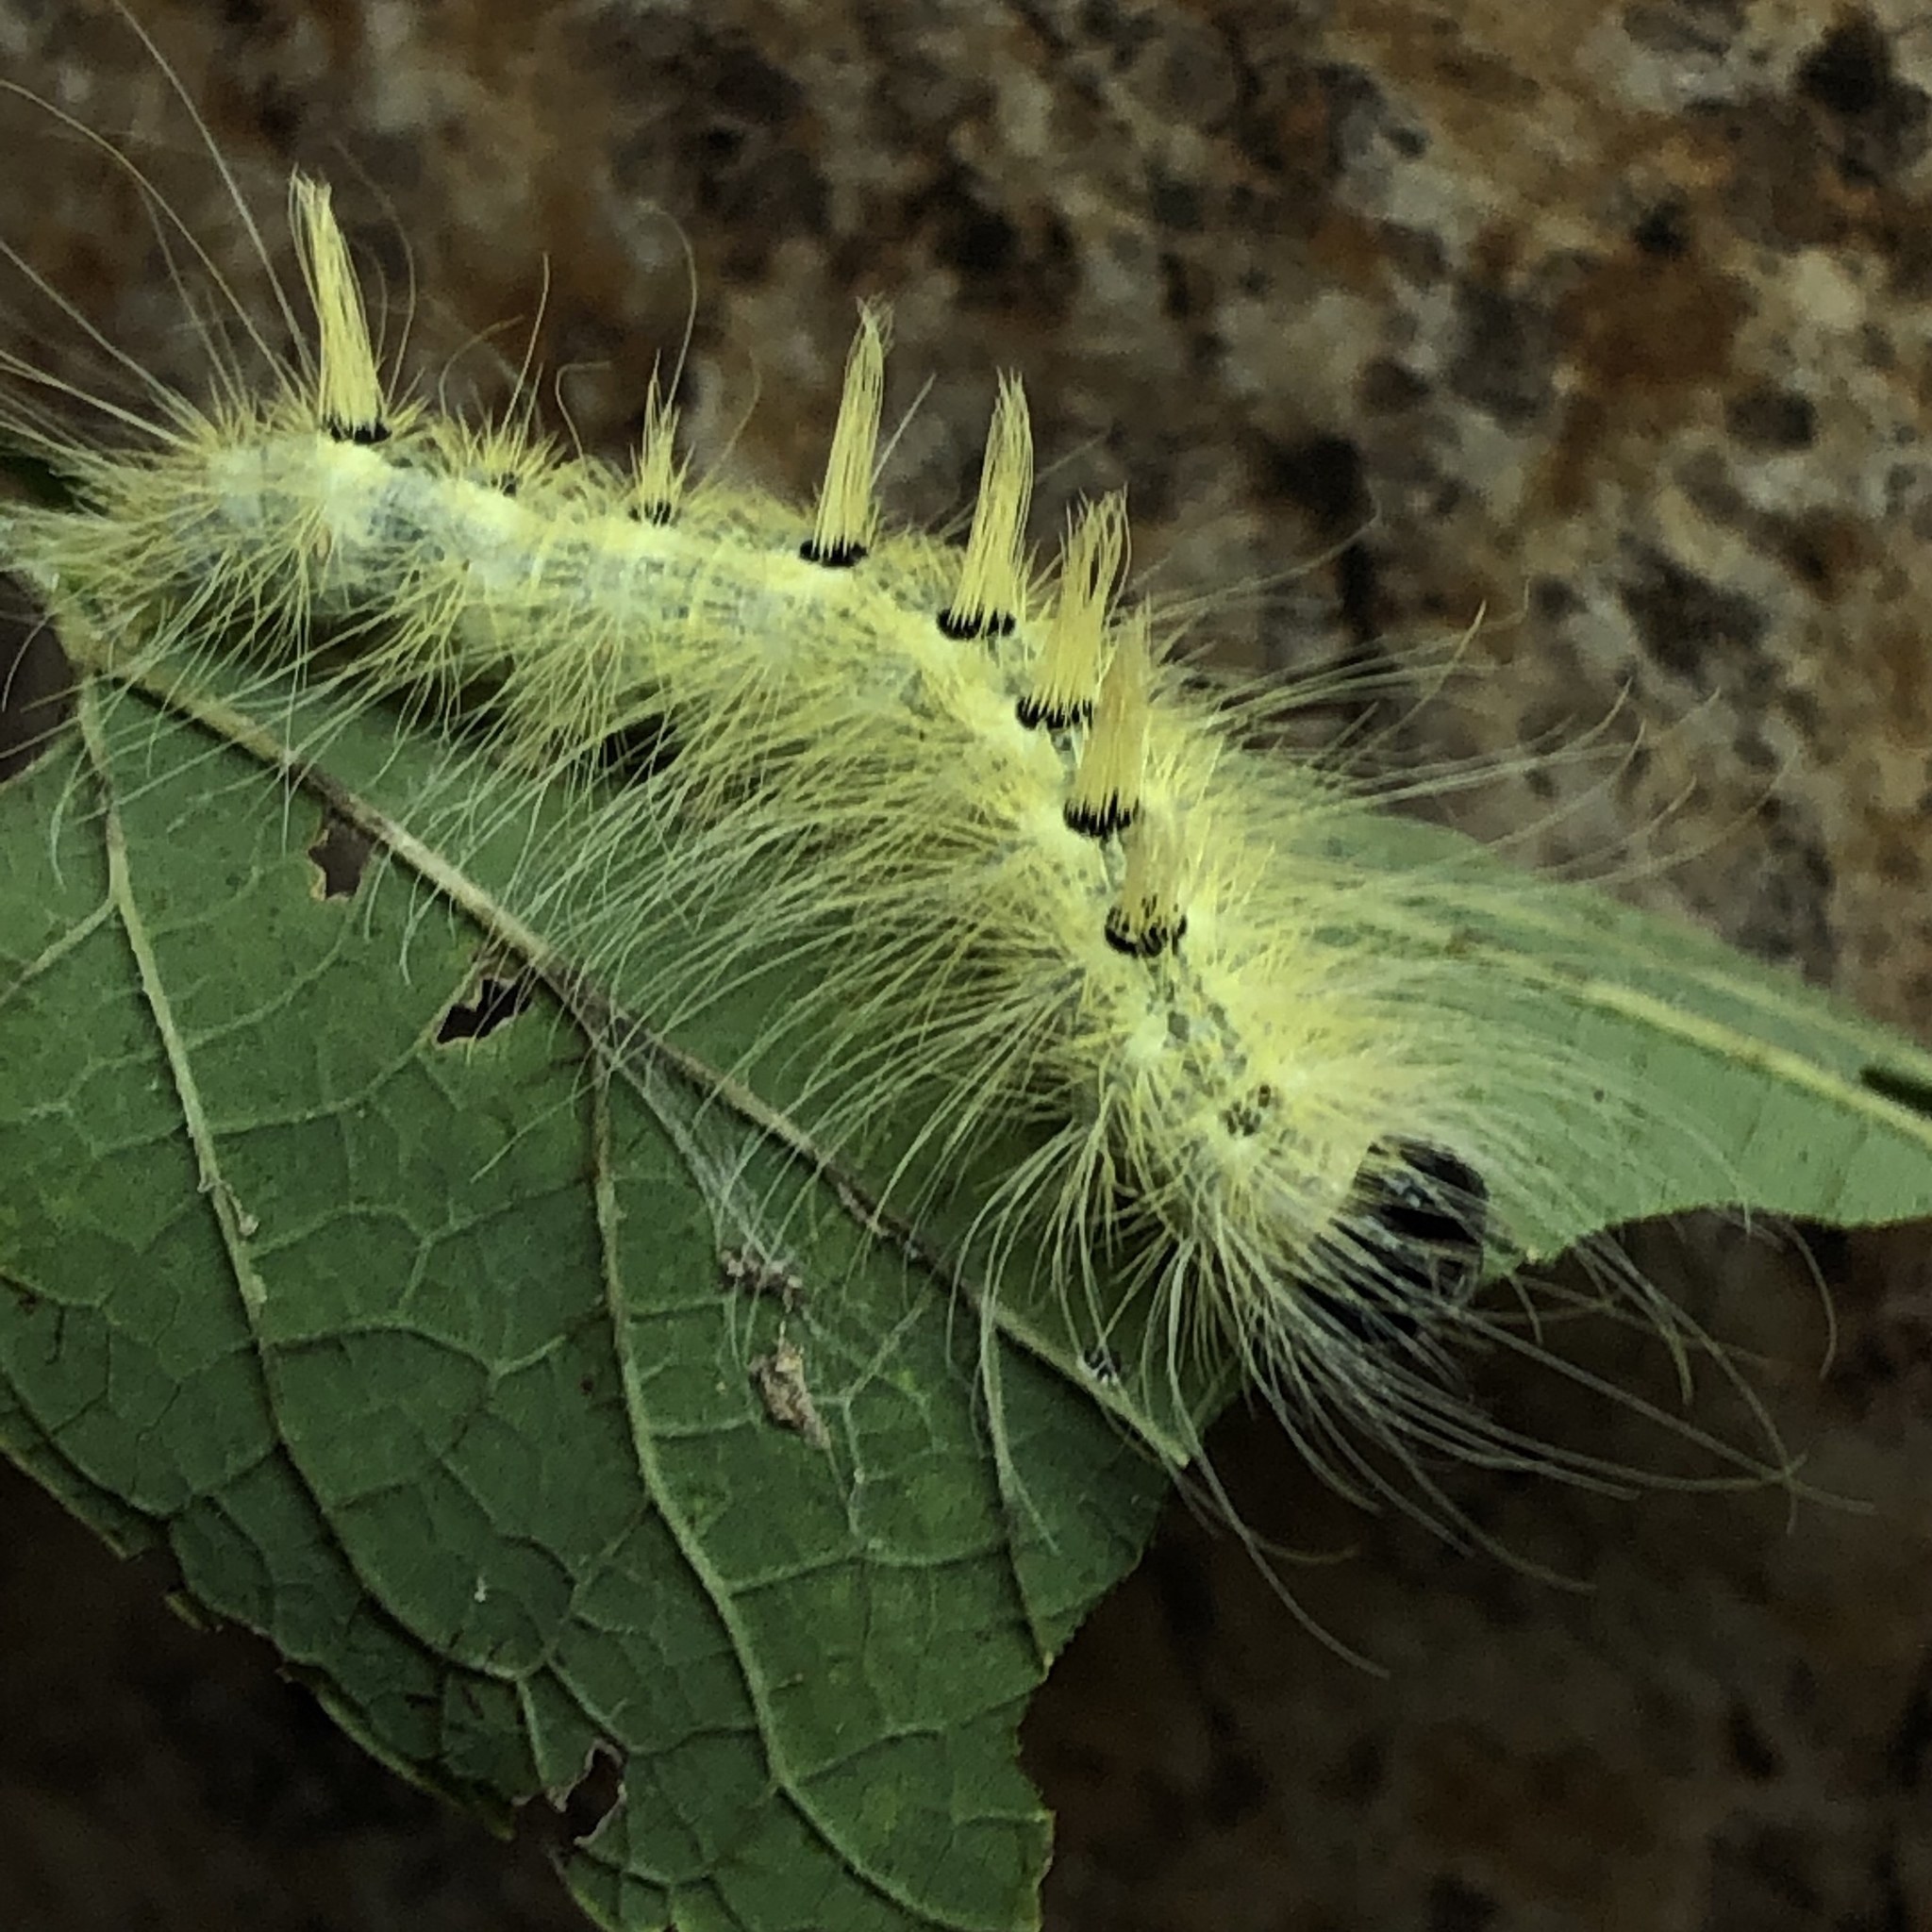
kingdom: Animalia
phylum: Arthropoda
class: Insecta
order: Lepidoptera
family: Noctuidae
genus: Acronicta
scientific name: Acronicta rubricoma
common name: Hackberry dagger
